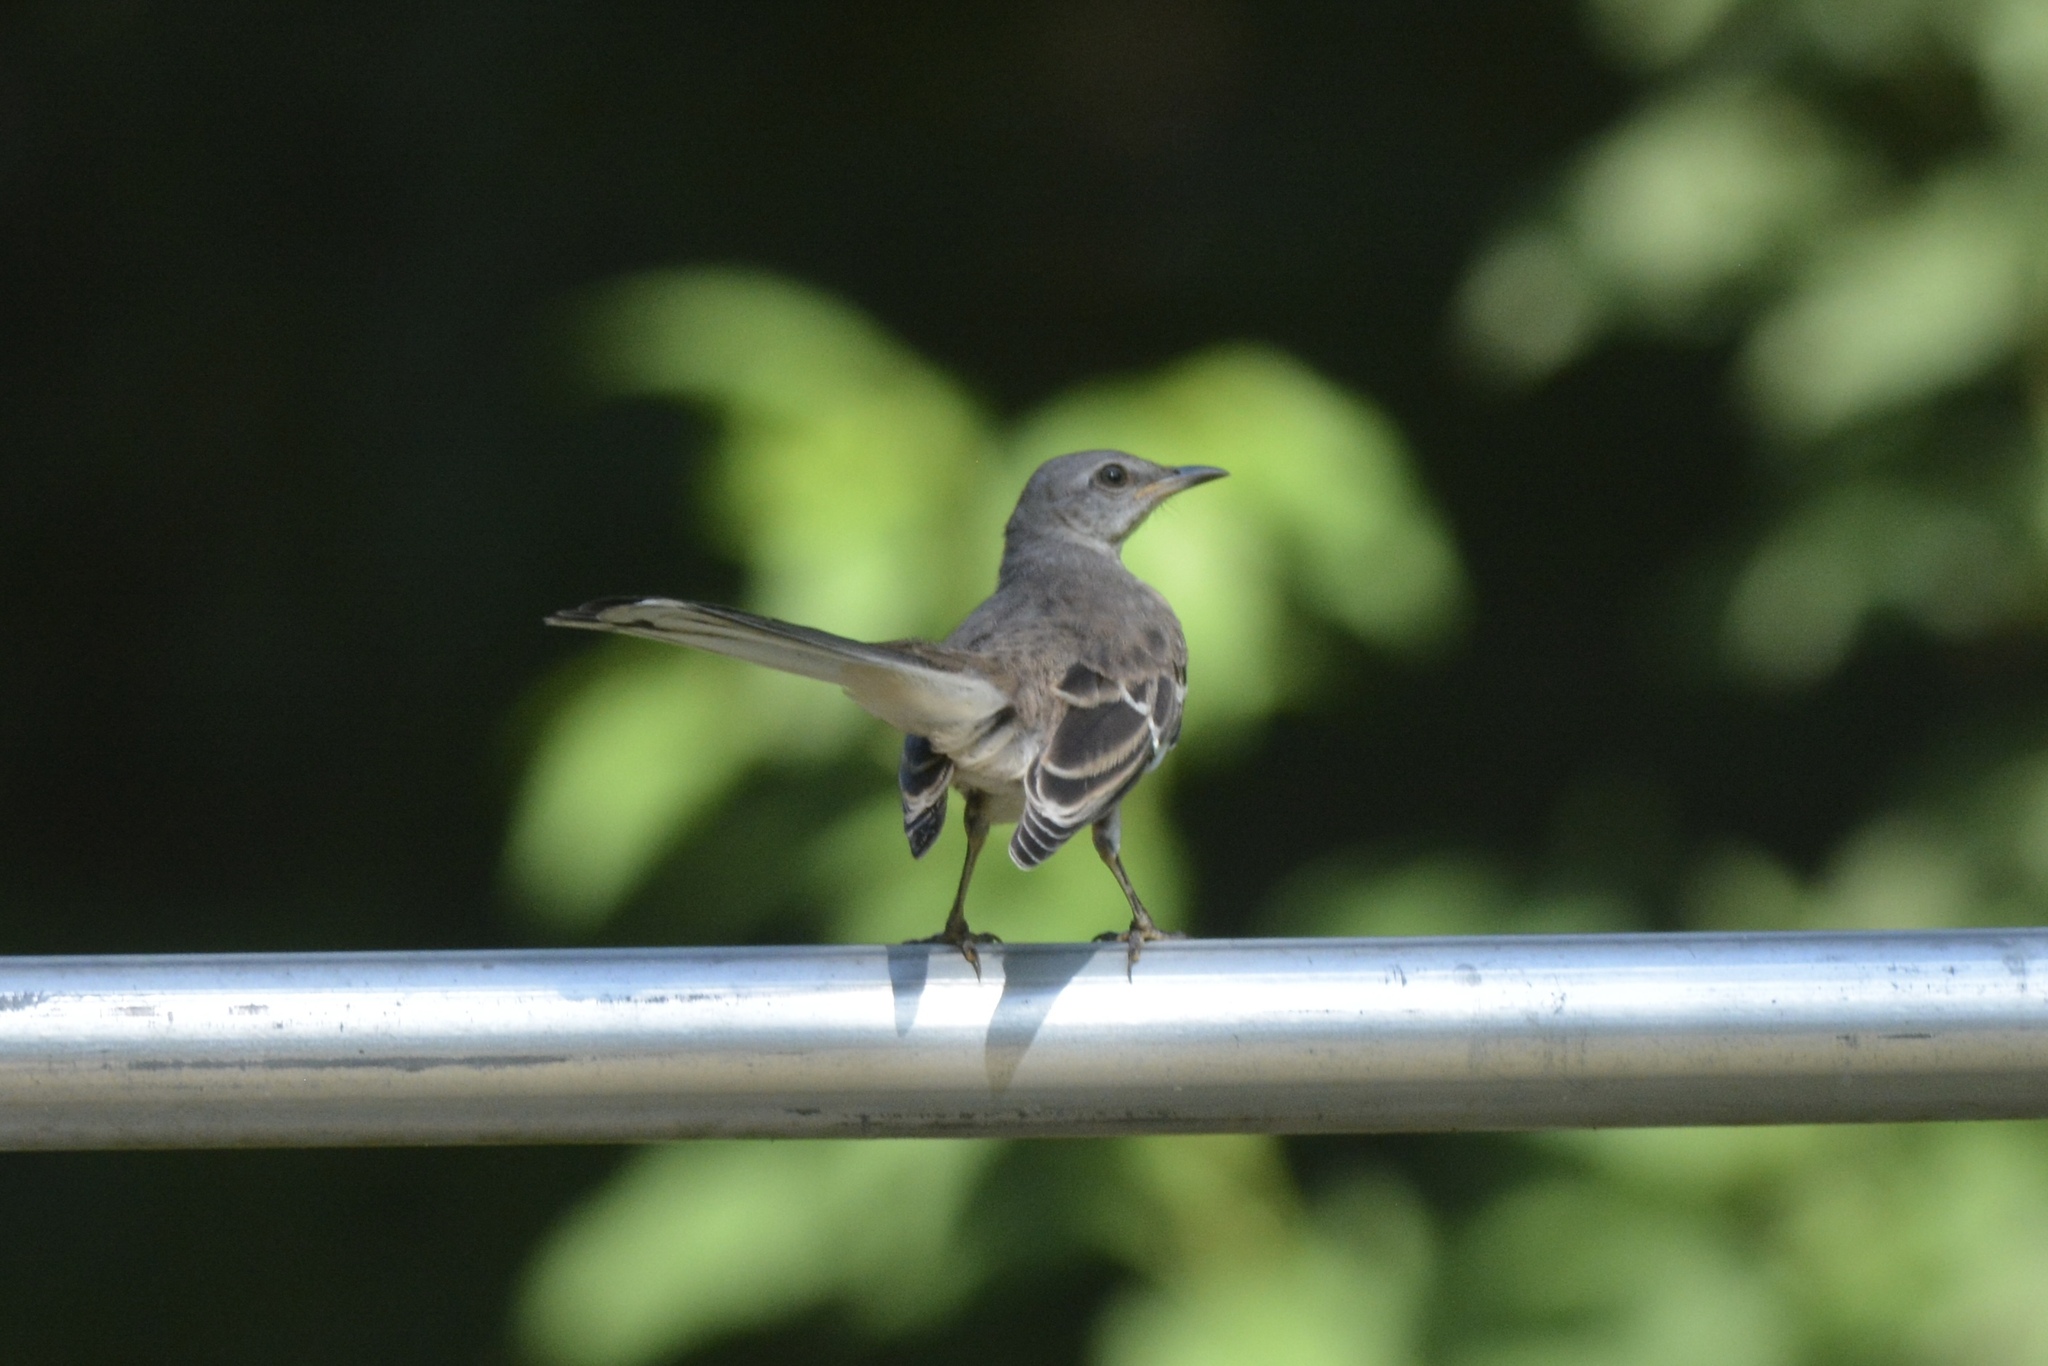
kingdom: Animalia
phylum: Chordata
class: Aves
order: Passeriformes
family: Mimidae
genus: Mimus
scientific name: Mimus polyglottos
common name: Northern mockingbird
